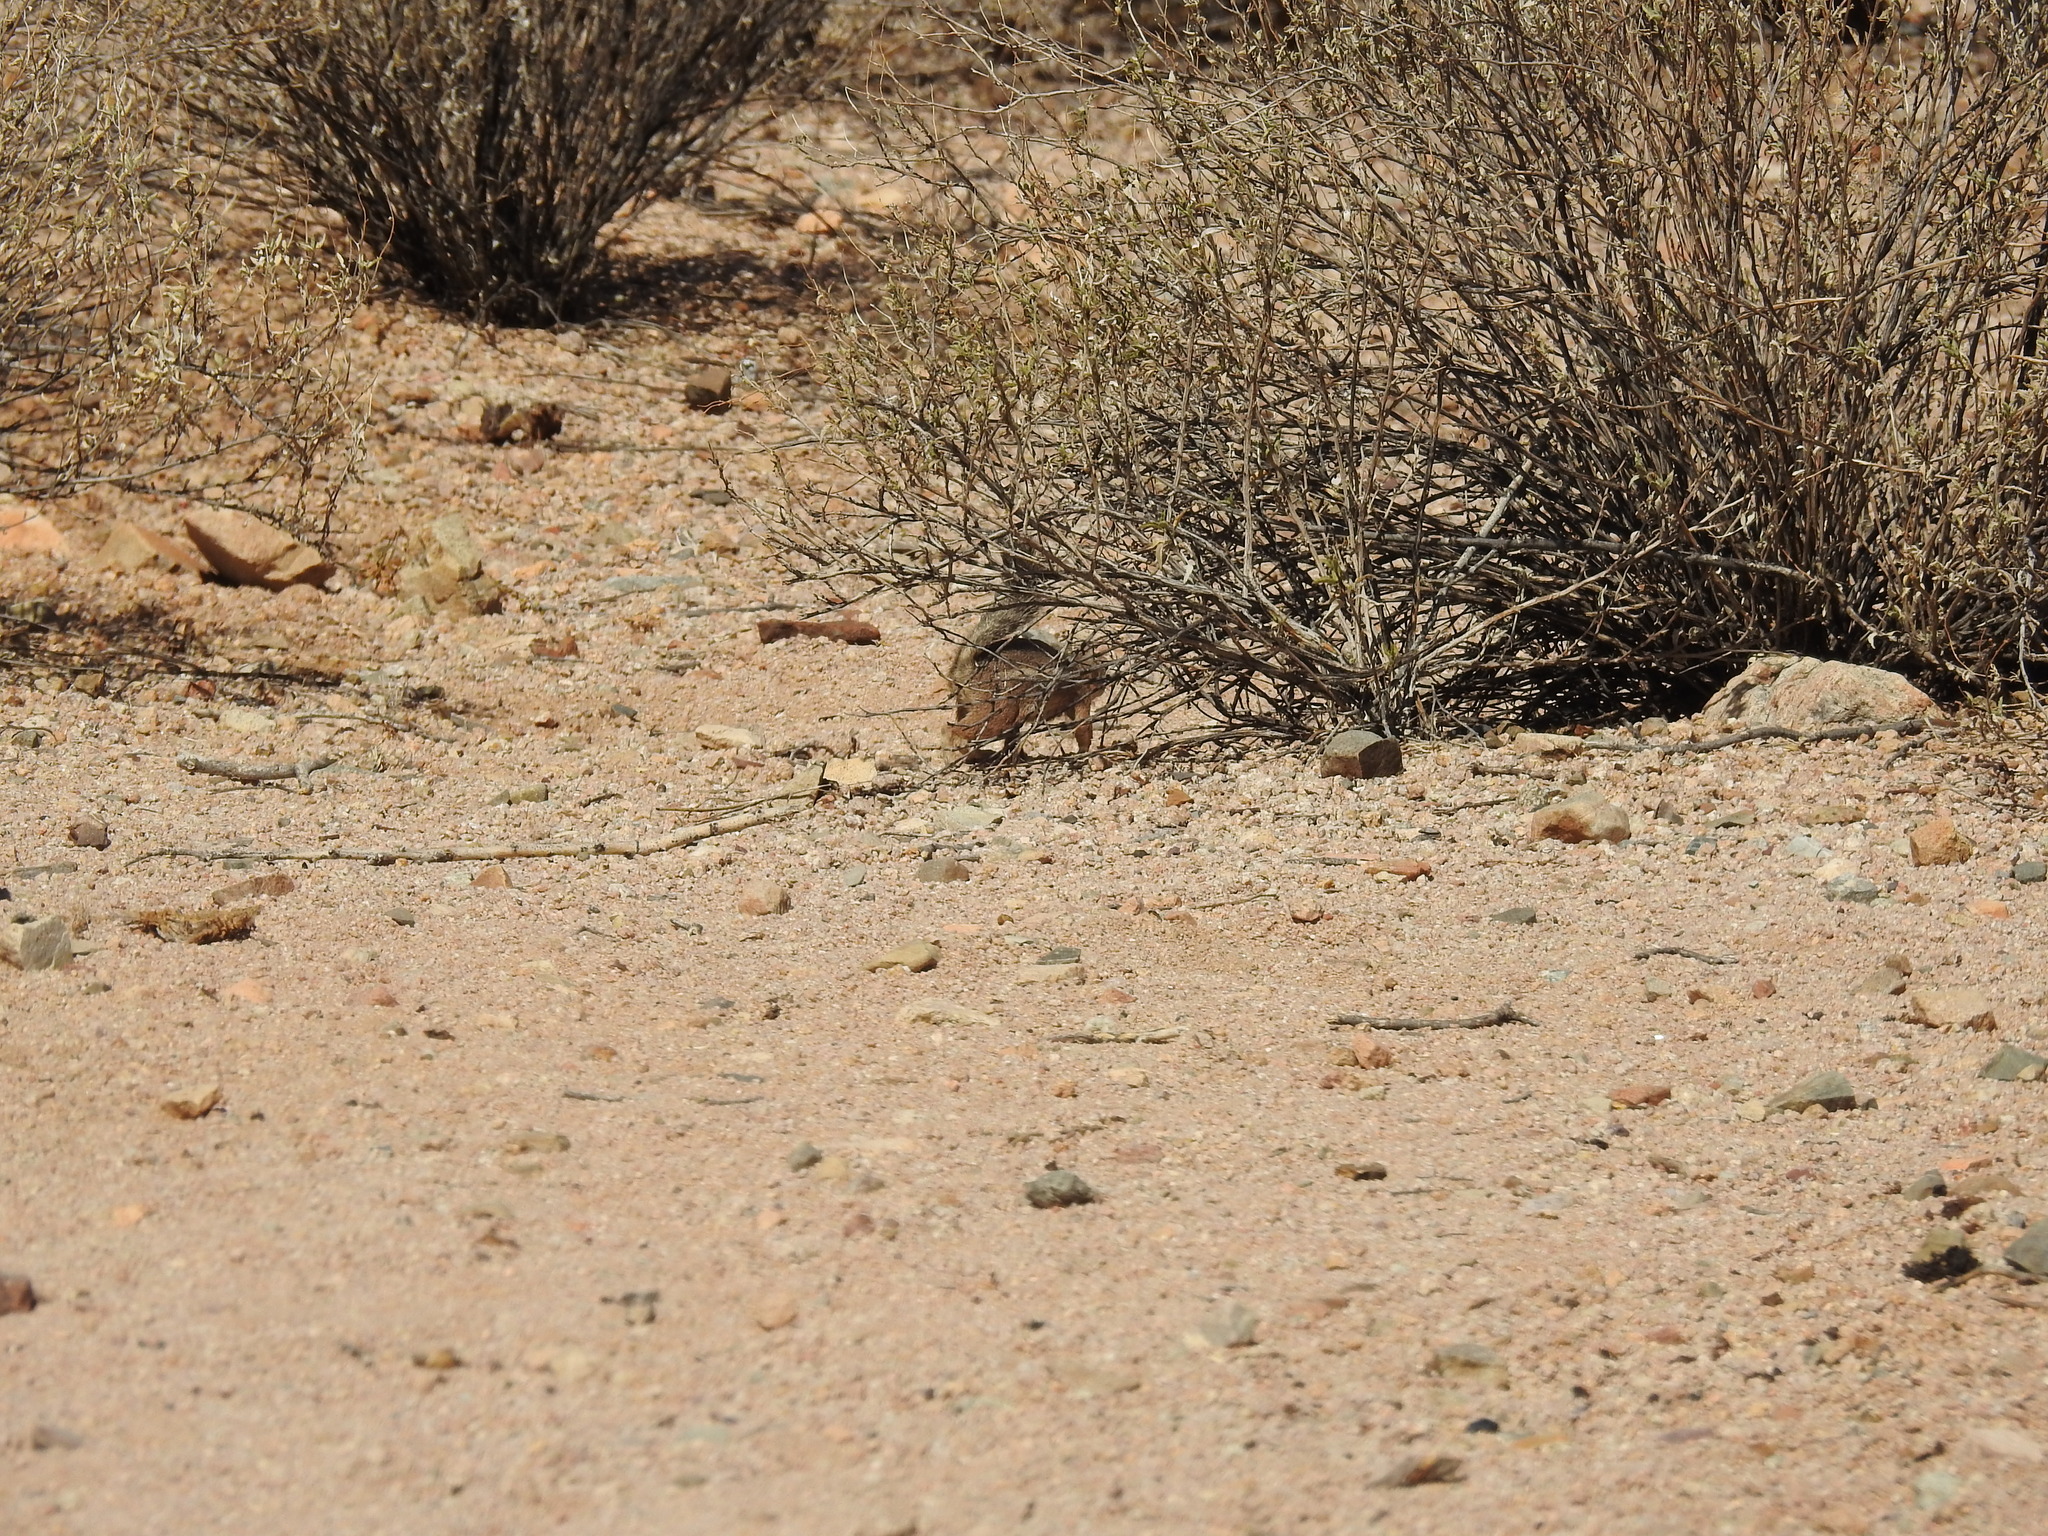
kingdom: Animalia
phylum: Chordata
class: Mammalia
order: Rodentia
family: Sciuridae
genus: Ammospermophilus
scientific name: Ammospermophilus harrisii
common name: Harris's antelope squirrel
